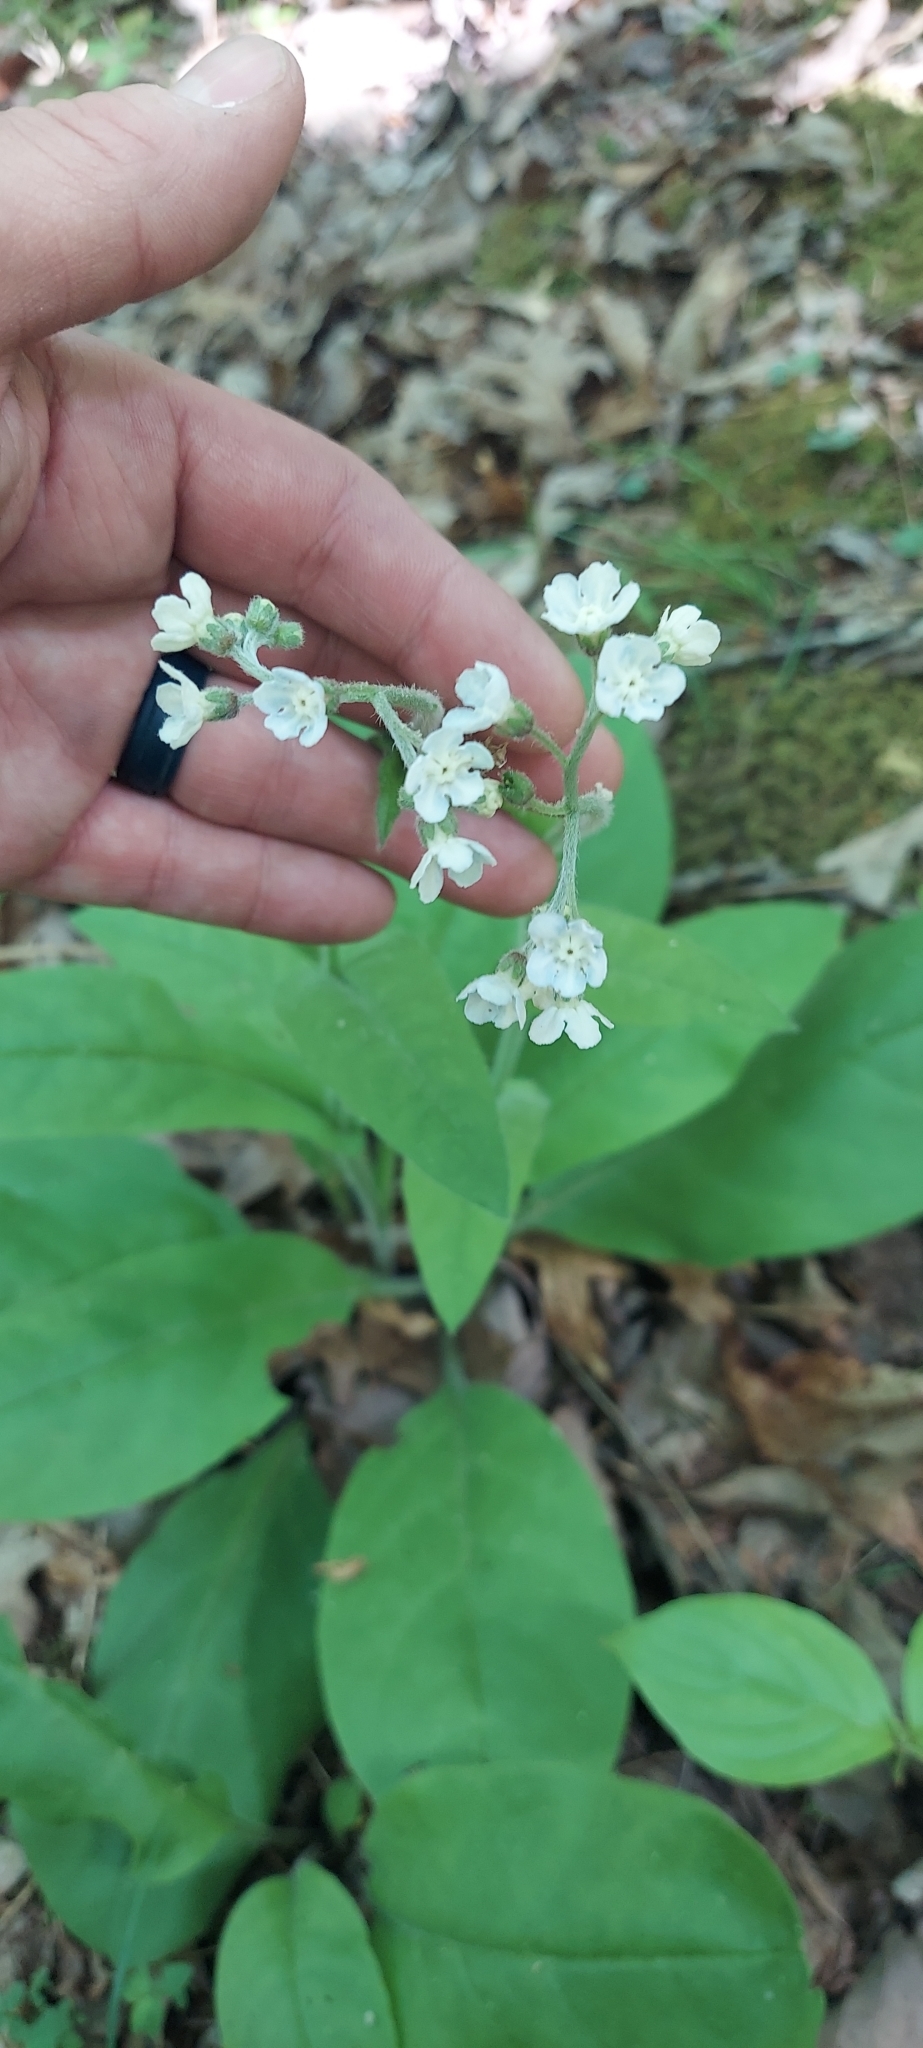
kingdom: Plantae
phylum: Tracheophyta
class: Magnoliopsida
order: Boraginales
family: Boraginaceae
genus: Andersonglossum
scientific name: Andersonglossum virginianum
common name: Wild comfrey
